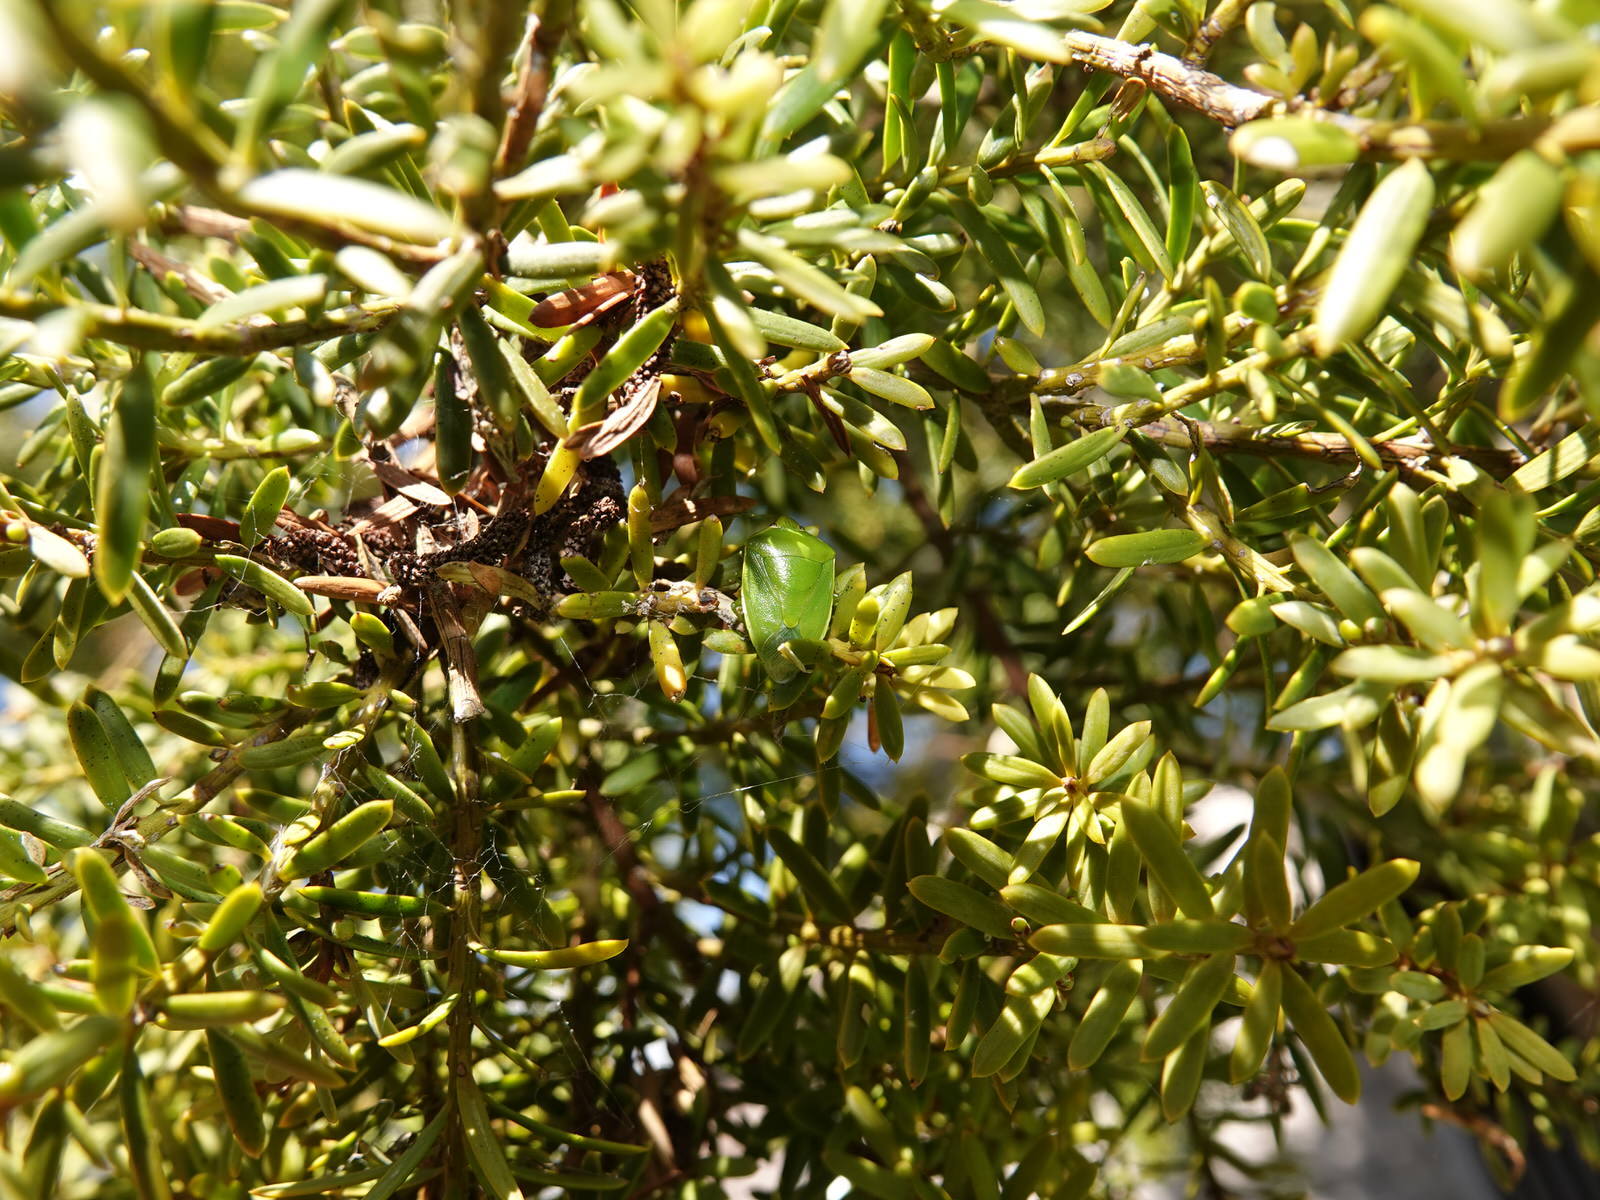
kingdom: Animalia
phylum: Arthropoda
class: Insecta
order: Hemiptera
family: Pentatomidae
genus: Glaucias
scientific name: Glaucias amyota
